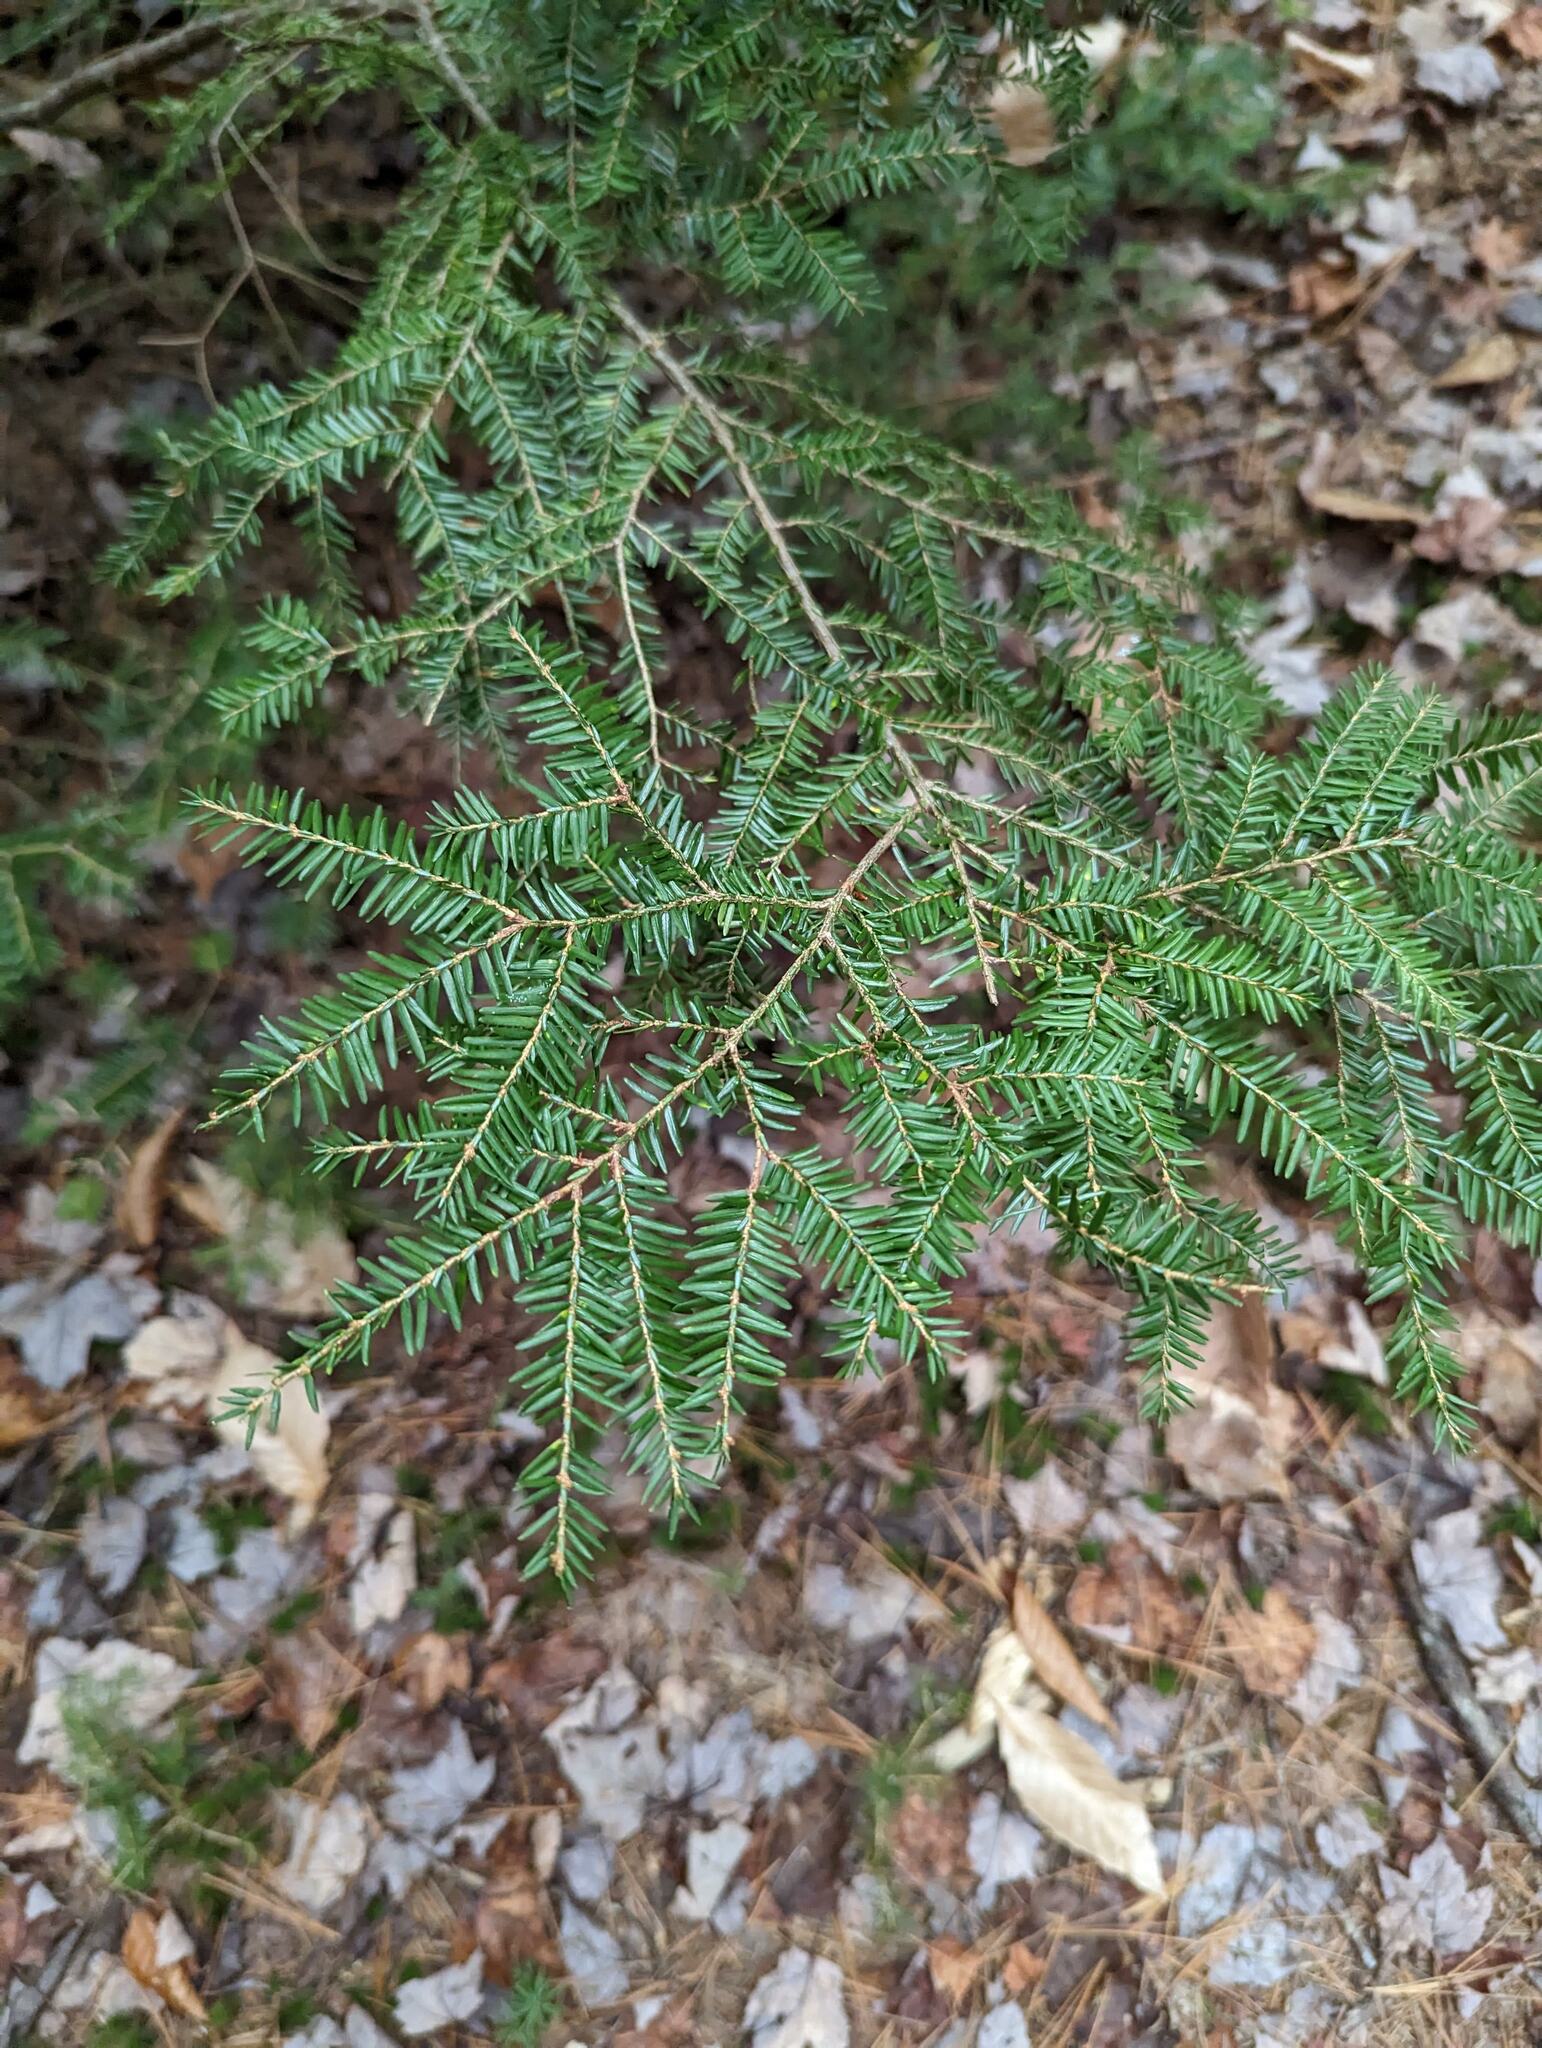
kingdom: Plantae
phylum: Tracheophyta
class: Pinopsida
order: Pinales
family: Pinaceae
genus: Tsuga
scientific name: Tsuga canadensis
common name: Eastern hemlock
